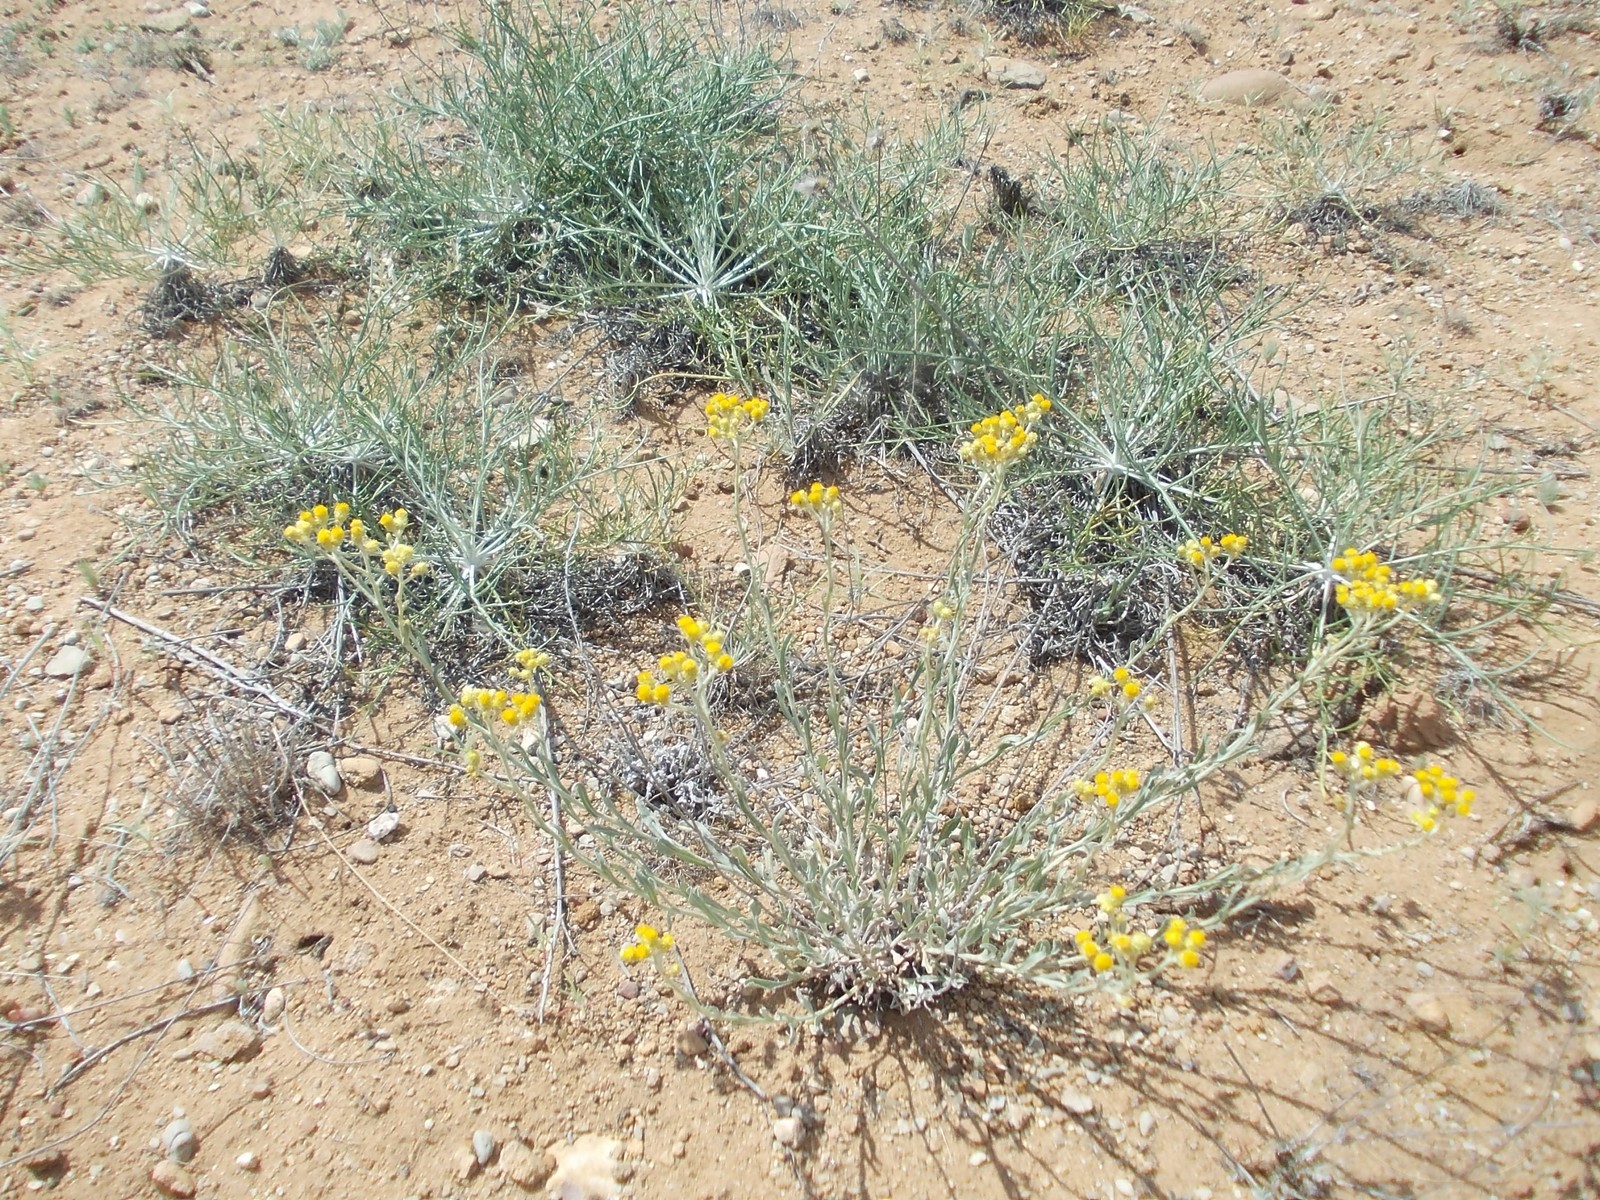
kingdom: Plantae
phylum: Tracheophyta
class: Magnoliopsida
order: Asterales
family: Asteraceae
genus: Helichrysum
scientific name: Helichrysum arenarium
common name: Strawflower
